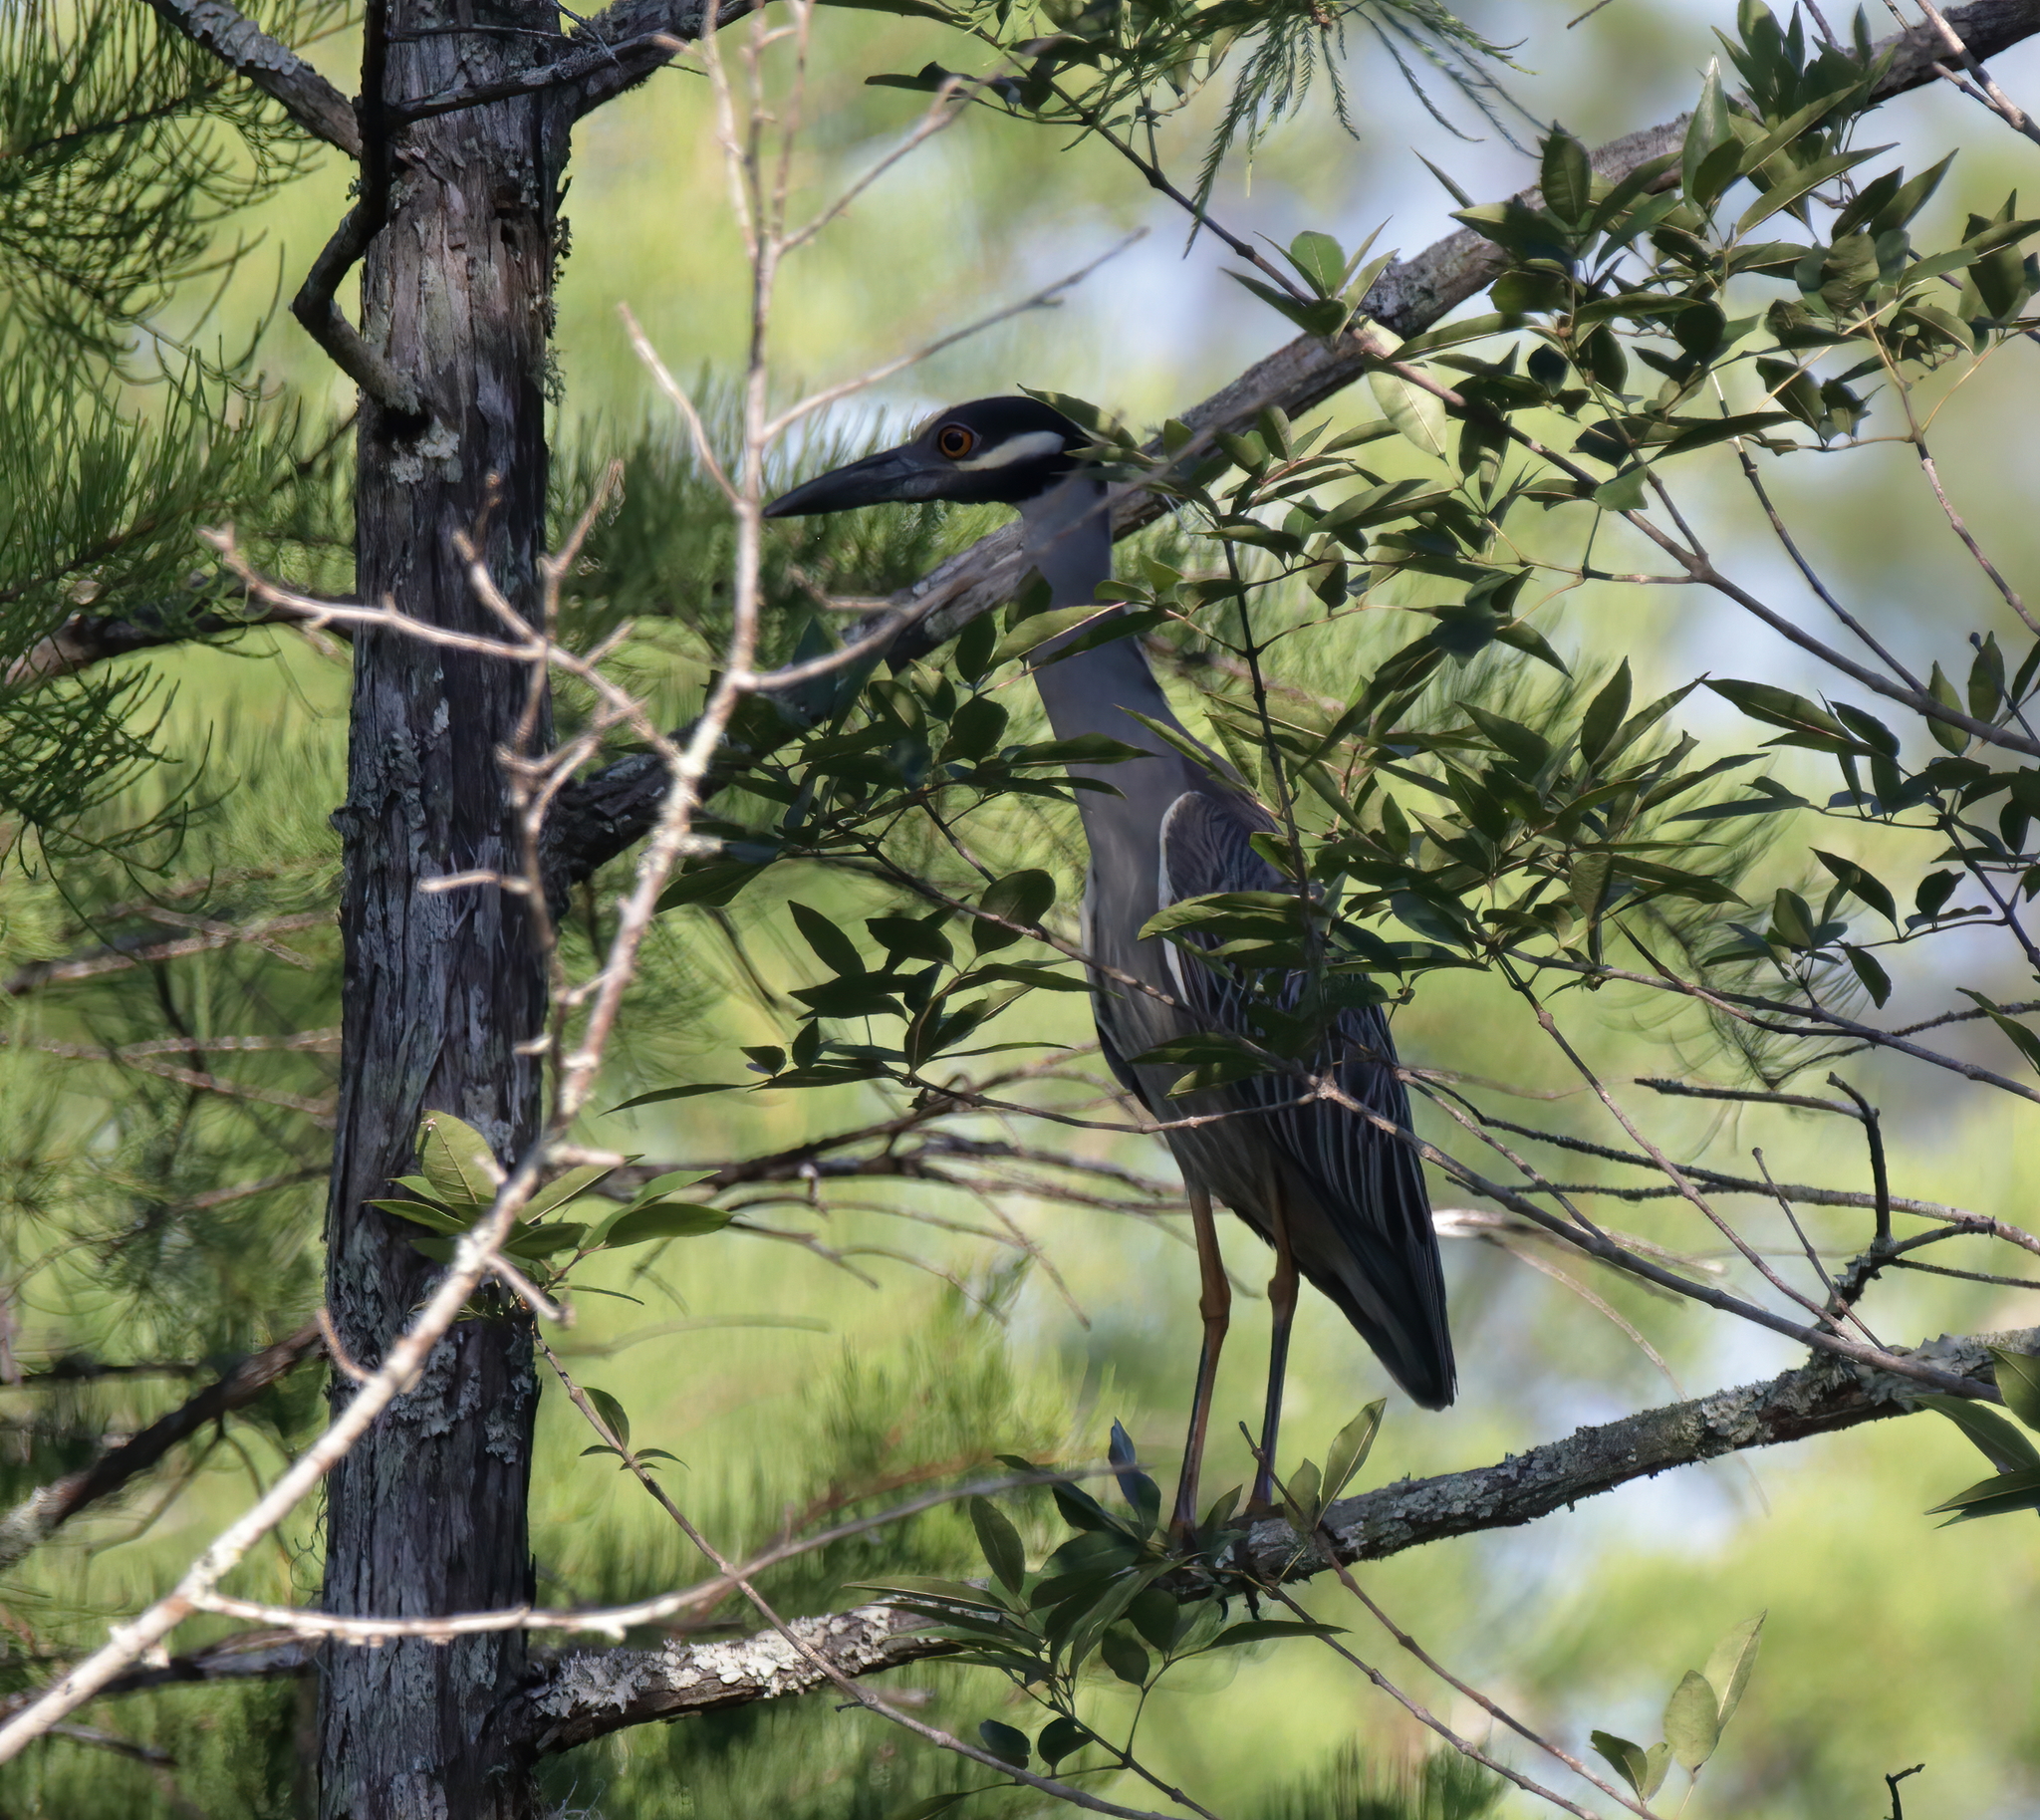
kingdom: Animalia
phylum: Chordata
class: Aves
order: Pelecaniformes
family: Ardeidae
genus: Nyctanassa
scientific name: Nyctanassa violacea
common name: Yellow-crowned night heron
